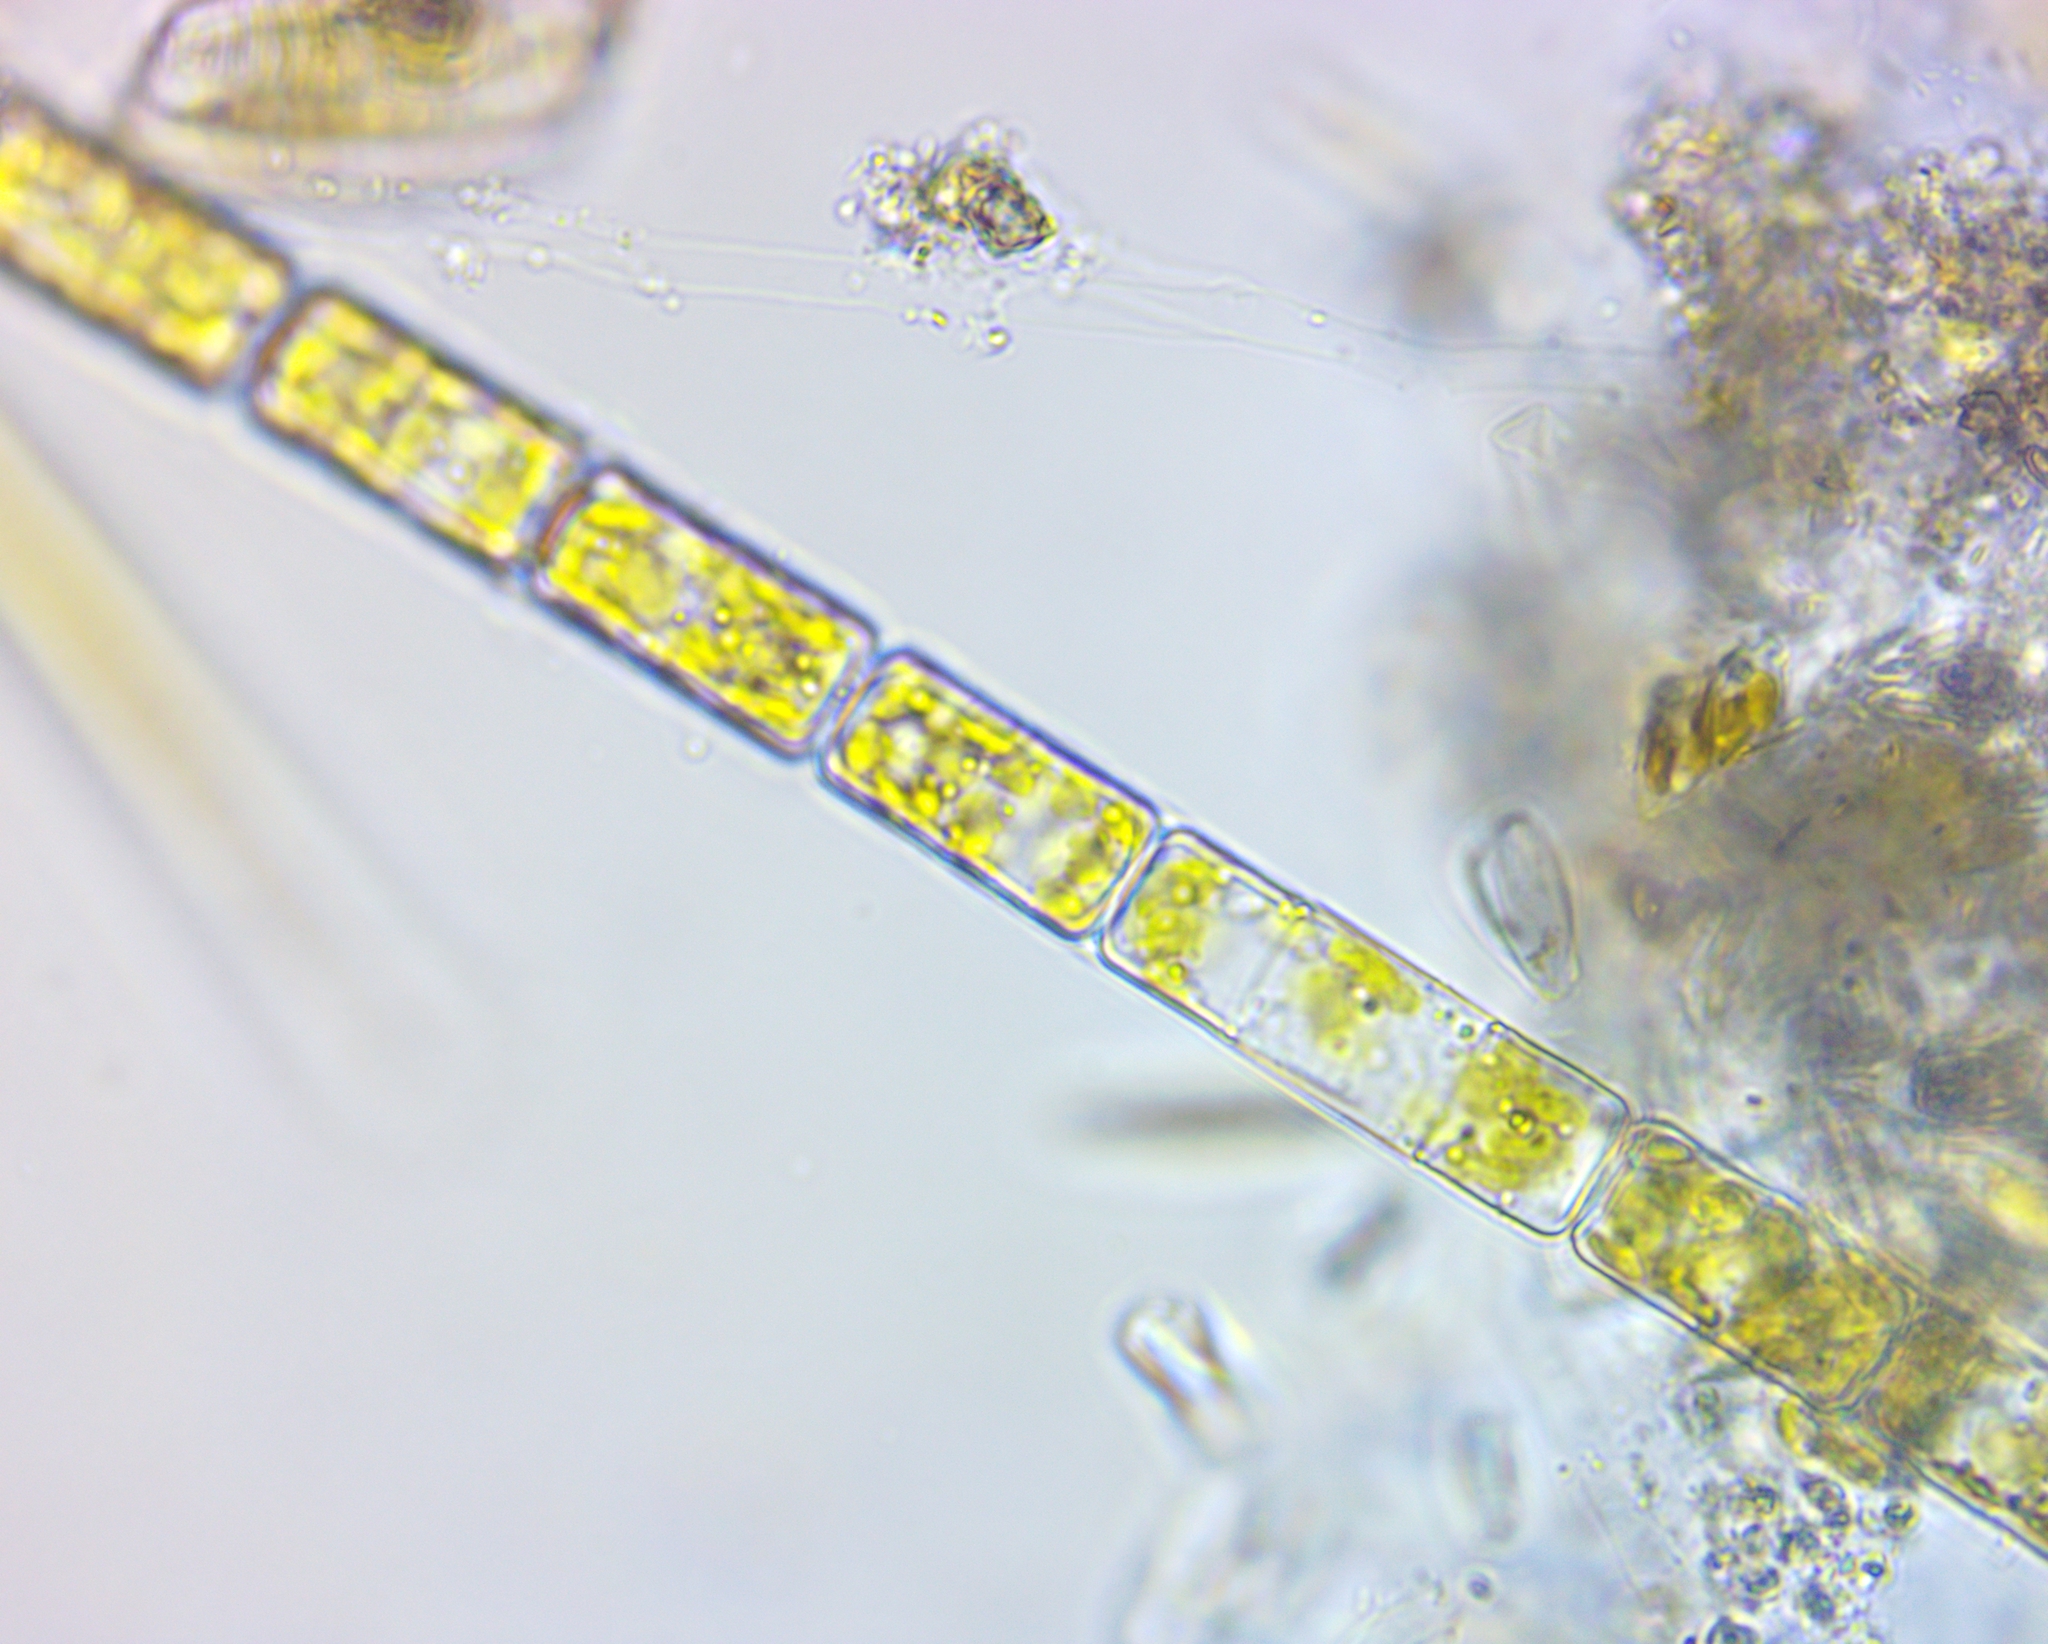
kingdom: Chromista
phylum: Ochrophyta
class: Bacillariophyceae
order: Melosirales
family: Melosiraceae
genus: Melosira
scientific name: Melosira varians
